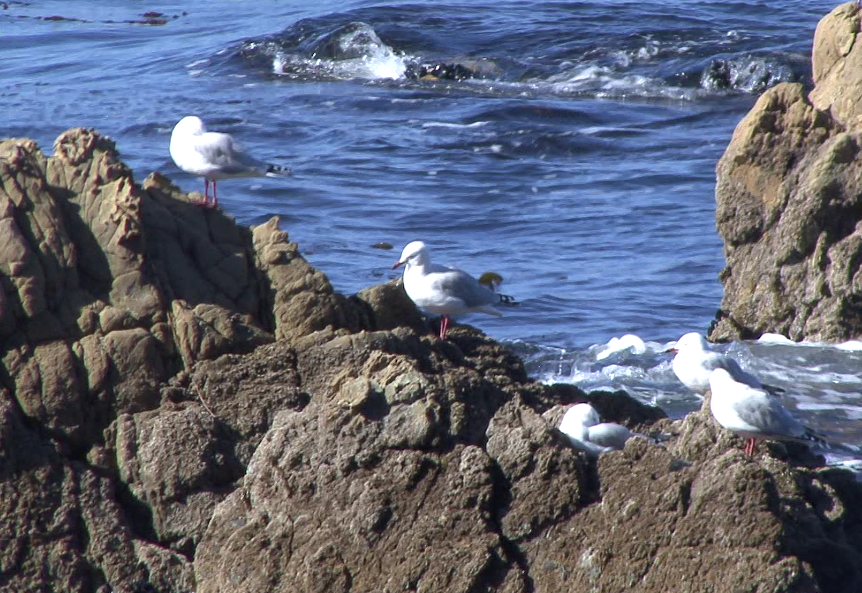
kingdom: Animalia
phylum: Chordata
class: Aves
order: Charadriiformes
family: Laridae
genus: Chroicocephalus
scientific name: Chroicocephalus novaehollandiae
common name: Silver gull
